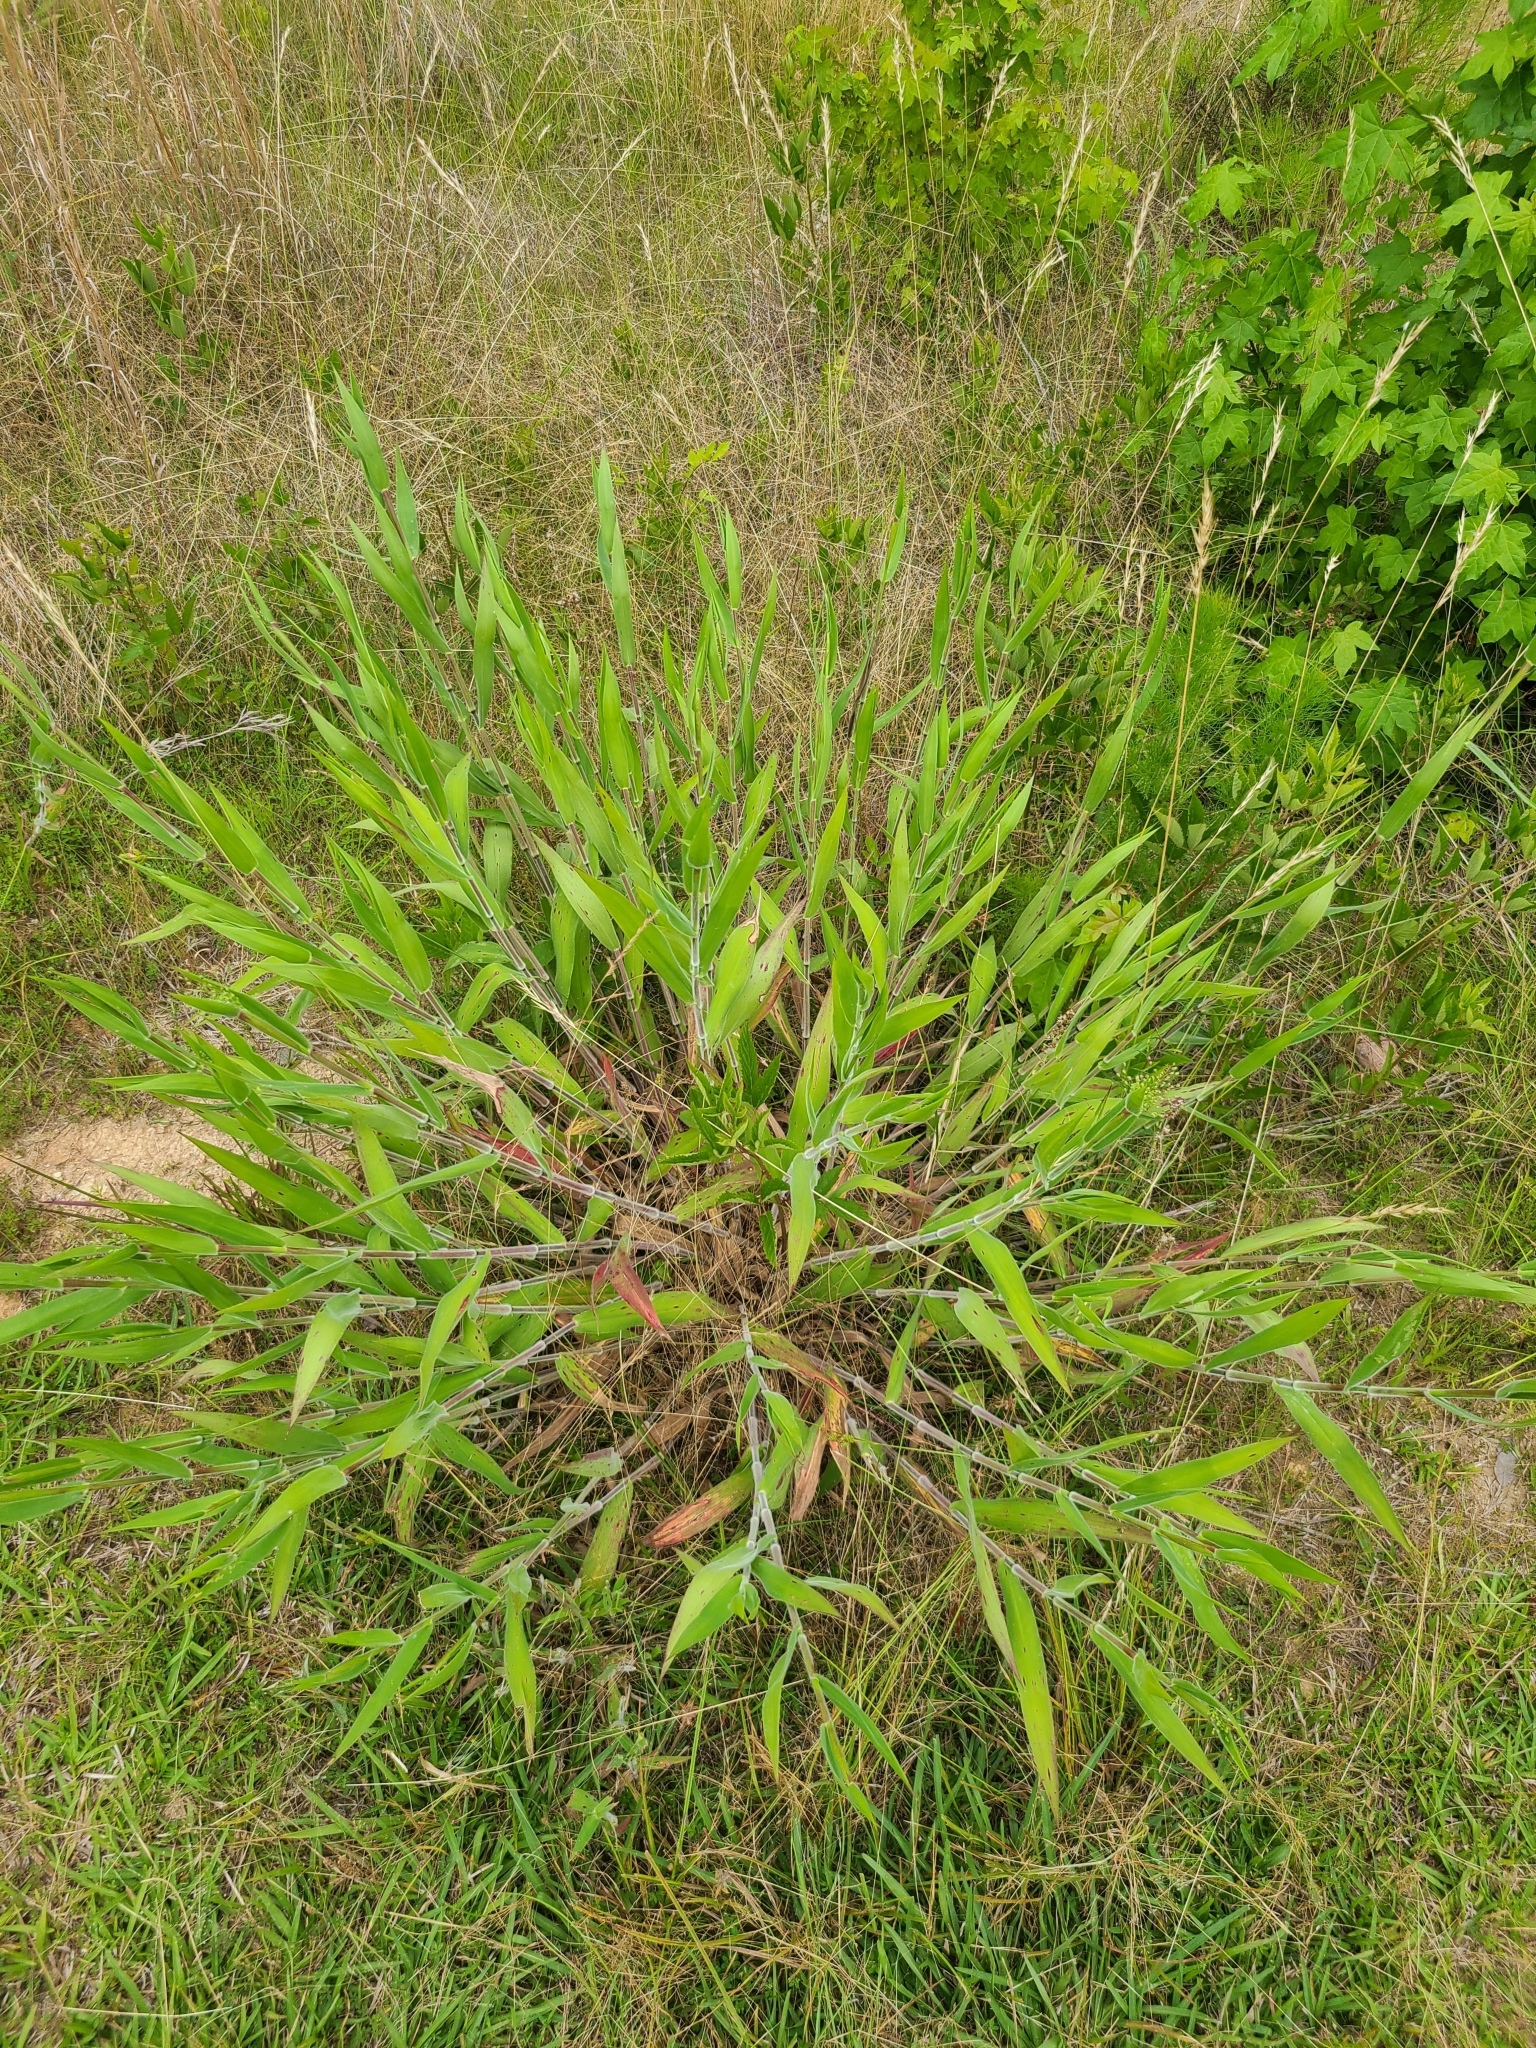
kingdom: Plantae
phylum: Tracheophyta
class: Liliopsida
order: Poales
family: Poaceae
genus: Dichanthelium
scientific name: Dichanthelium scoparium
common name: Velvety panic grass
